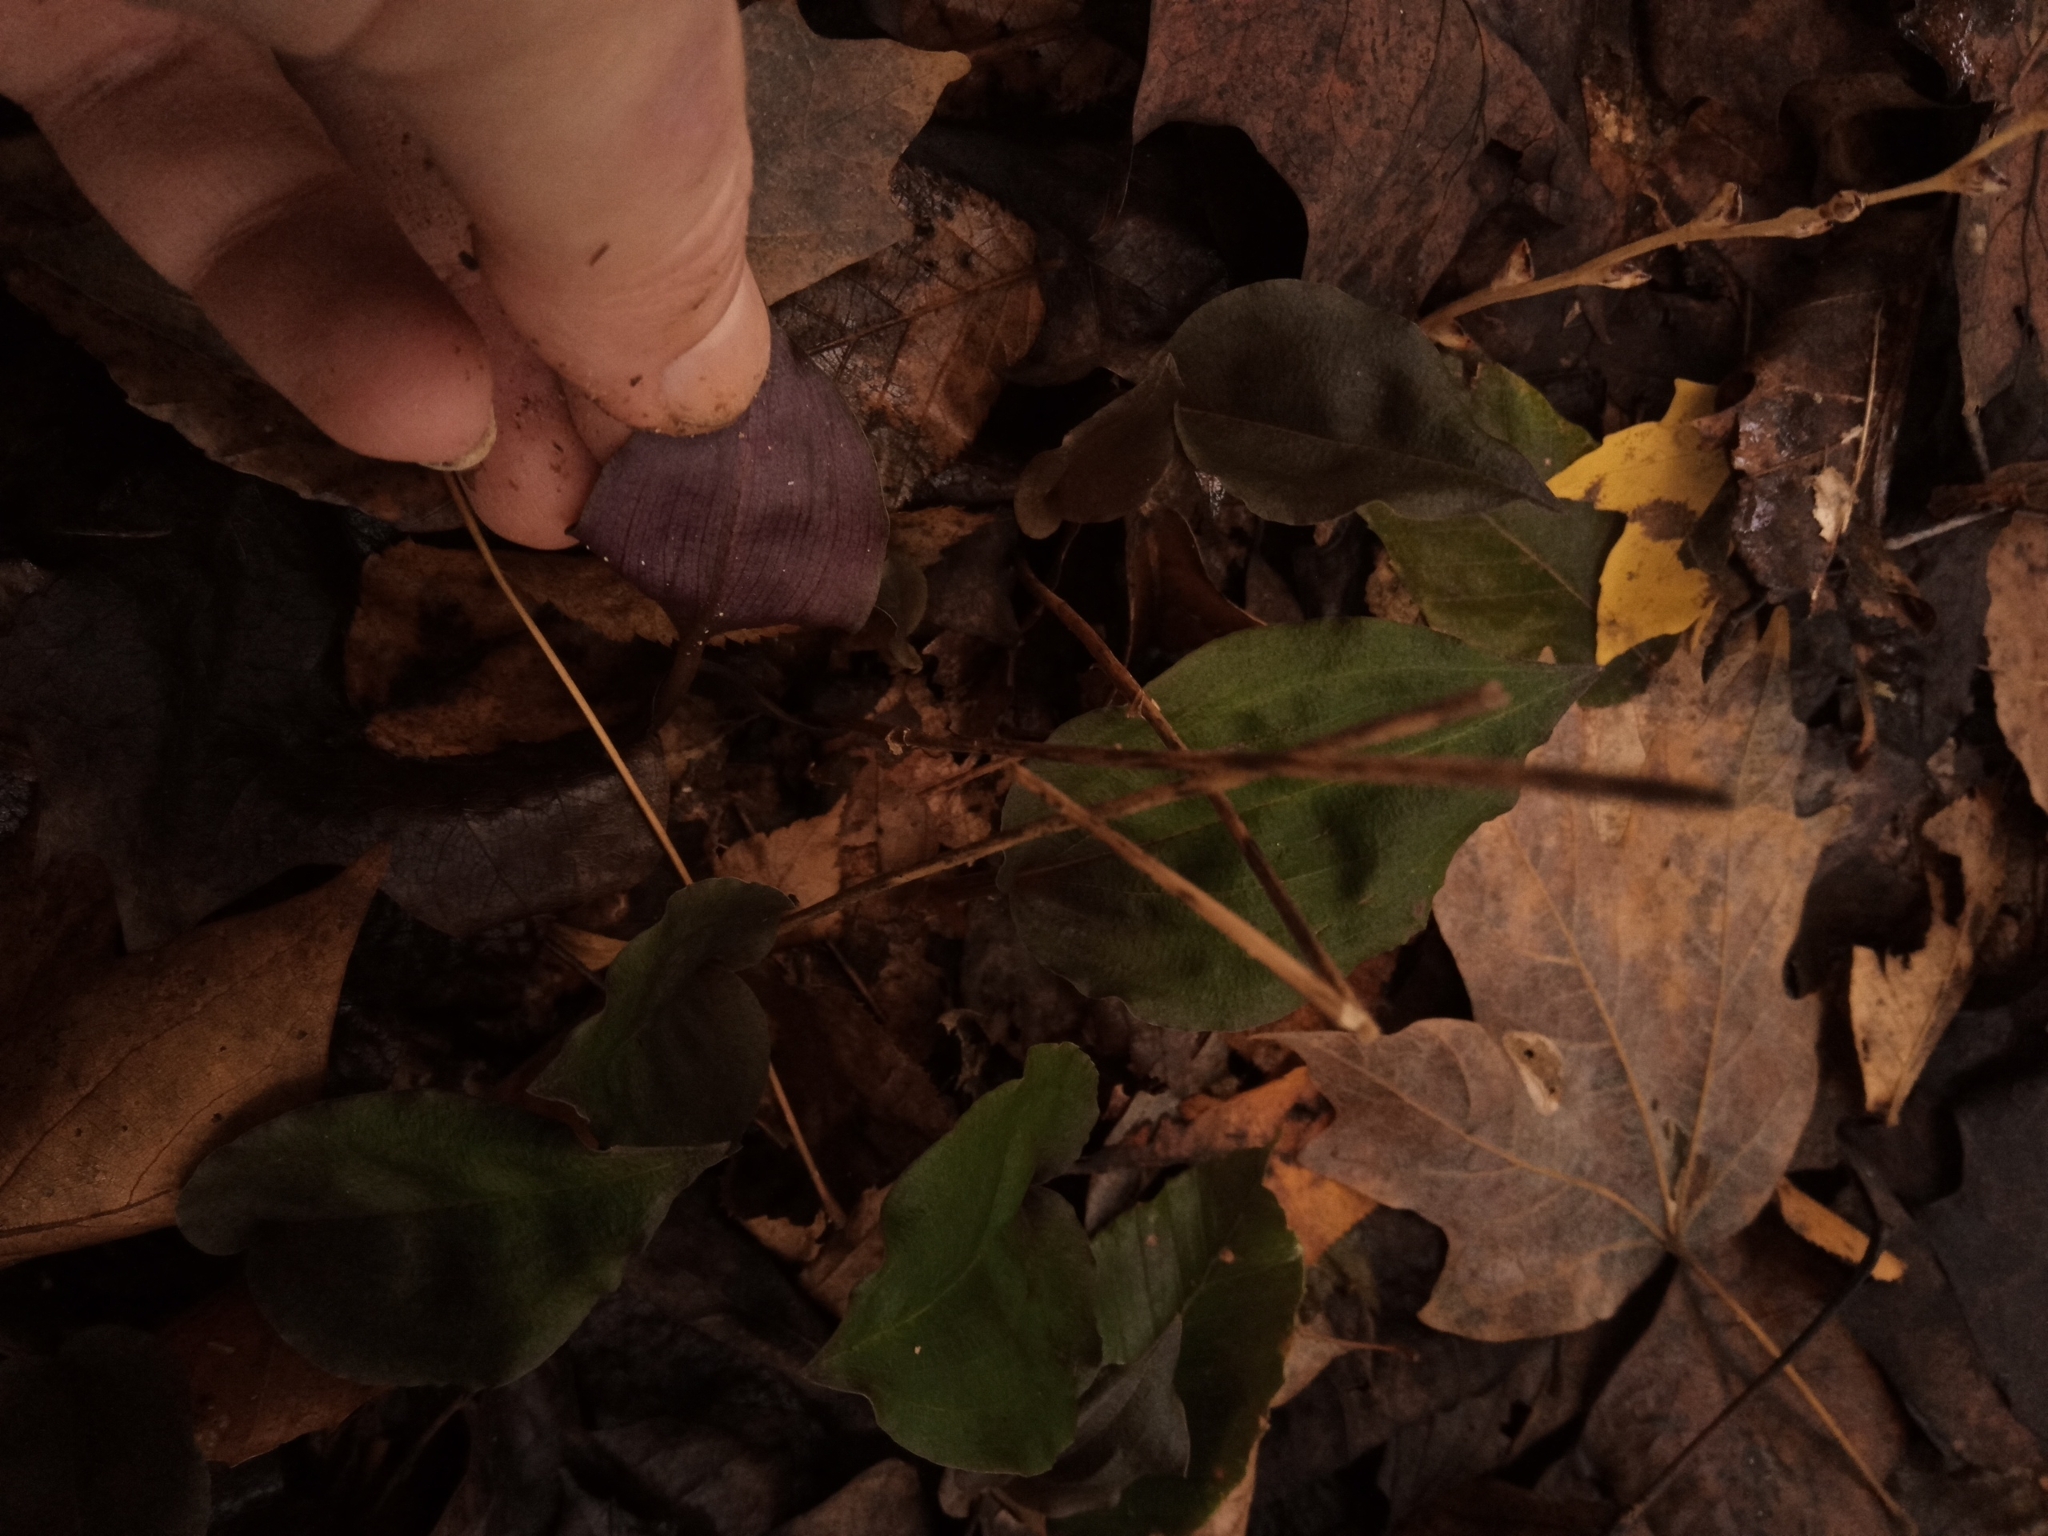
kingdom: Plantae
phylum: Tracheophyta
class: Liliopsida
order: Asparagales
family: Orchidaceae
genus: Tipularia
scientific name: Tipularia discolor
